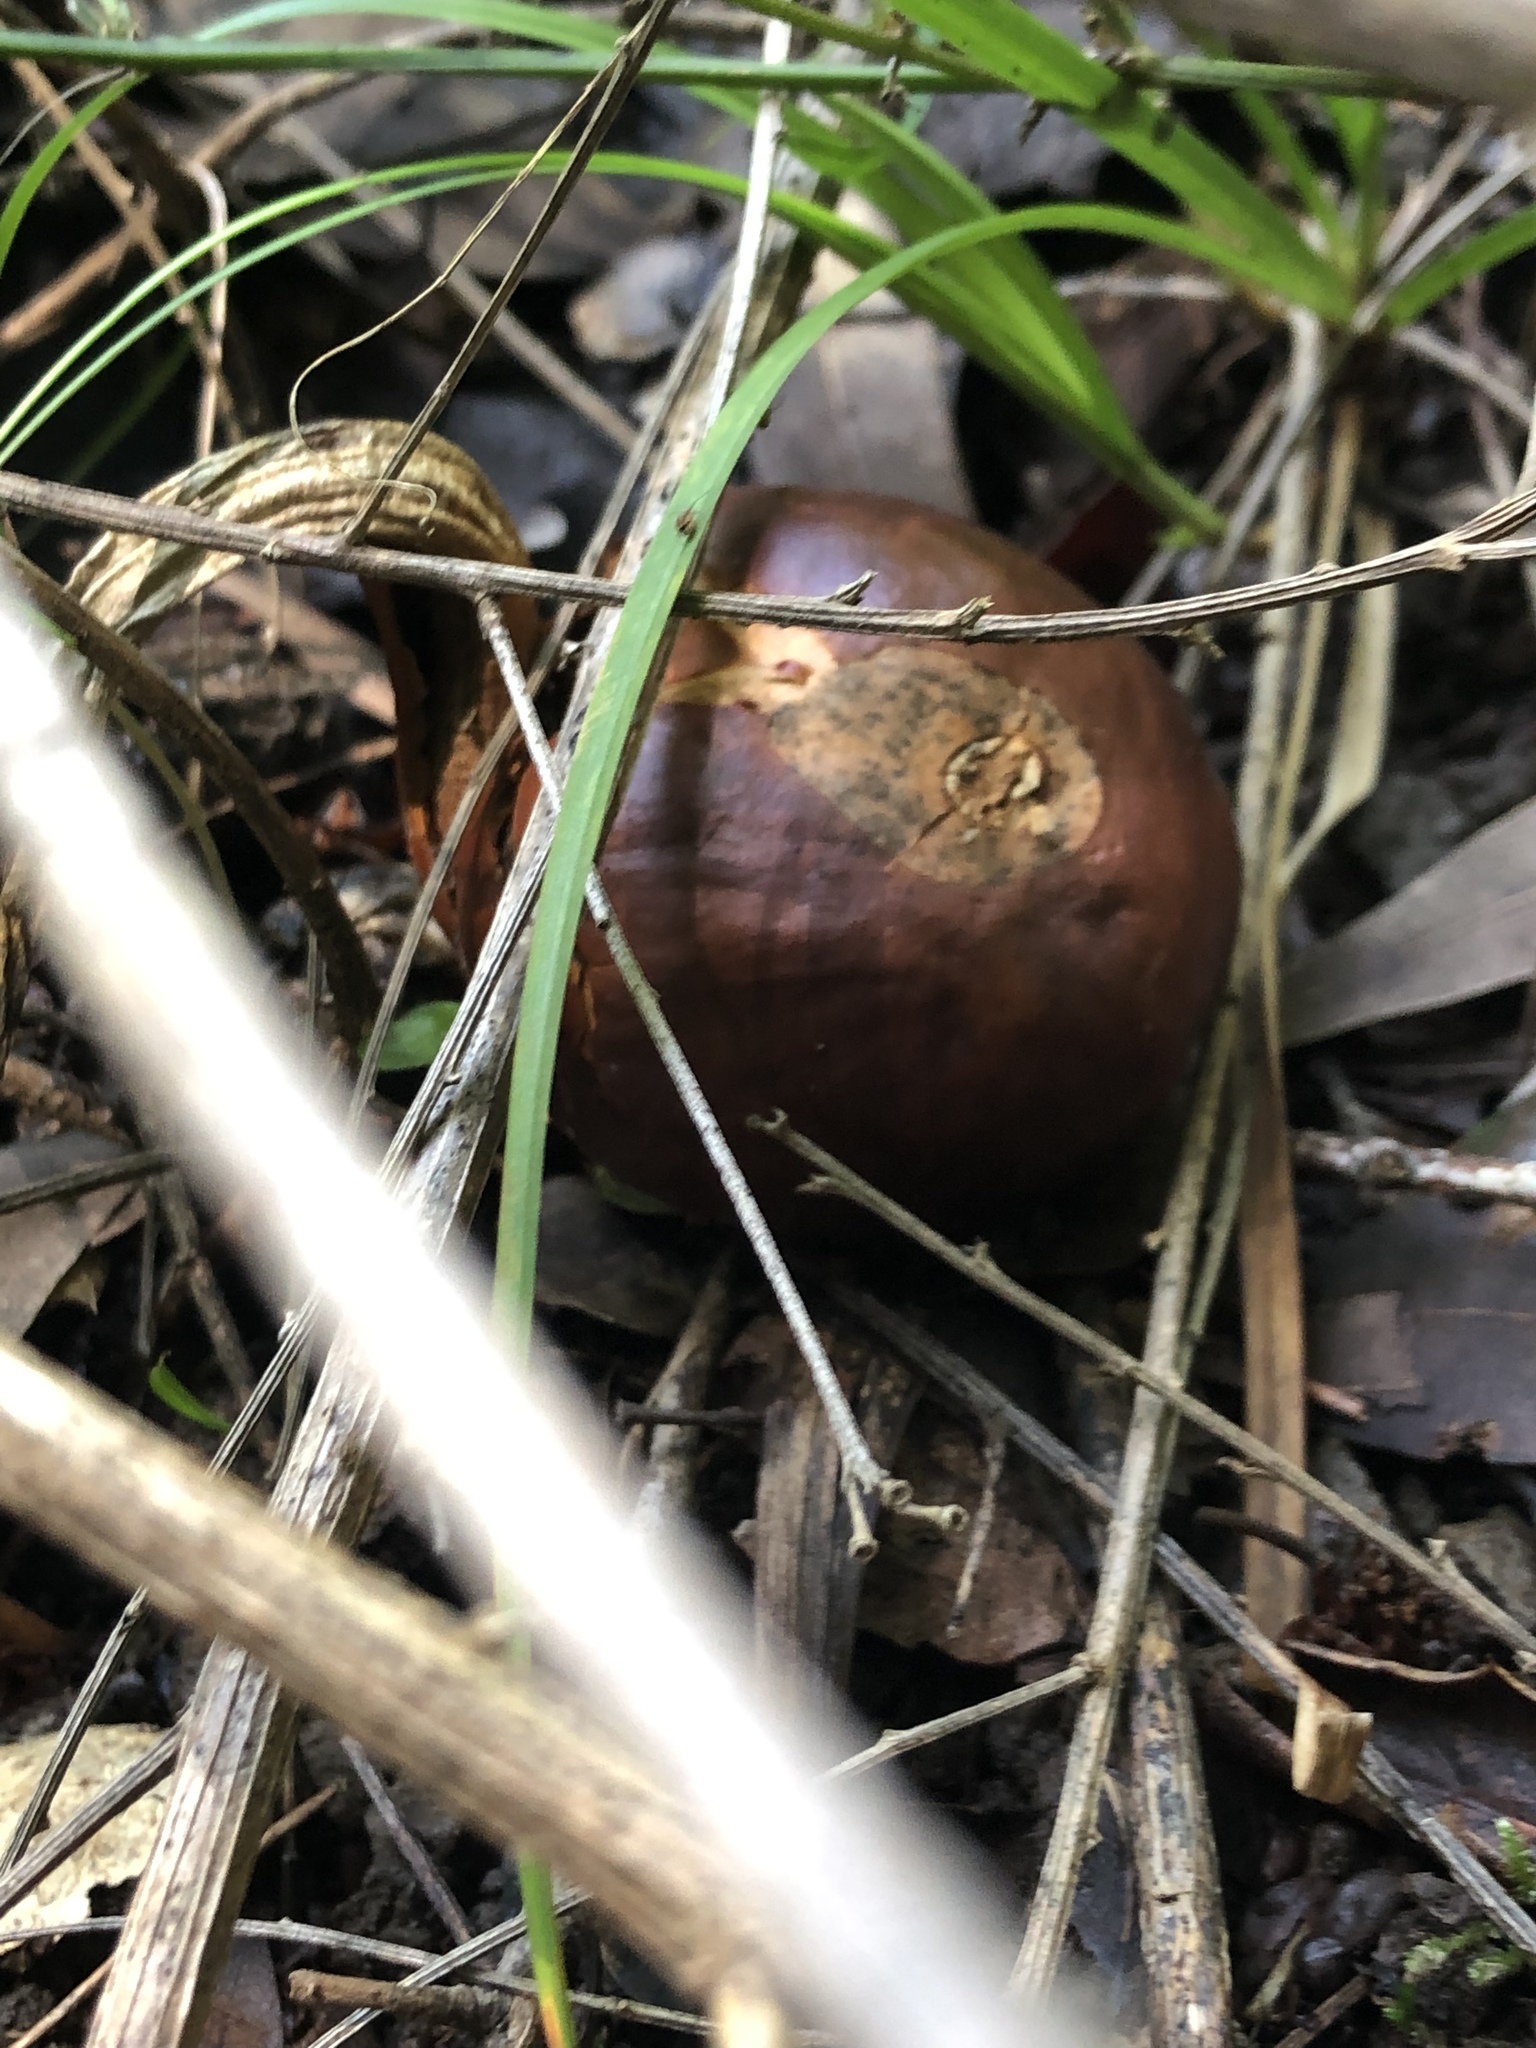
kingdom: Plantae
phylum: Tracheophyta
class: Magnoliopsida
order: Sapindales
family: Sapindaceae
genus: Aesculus
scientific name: Aesculus californica
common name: California buckeye
